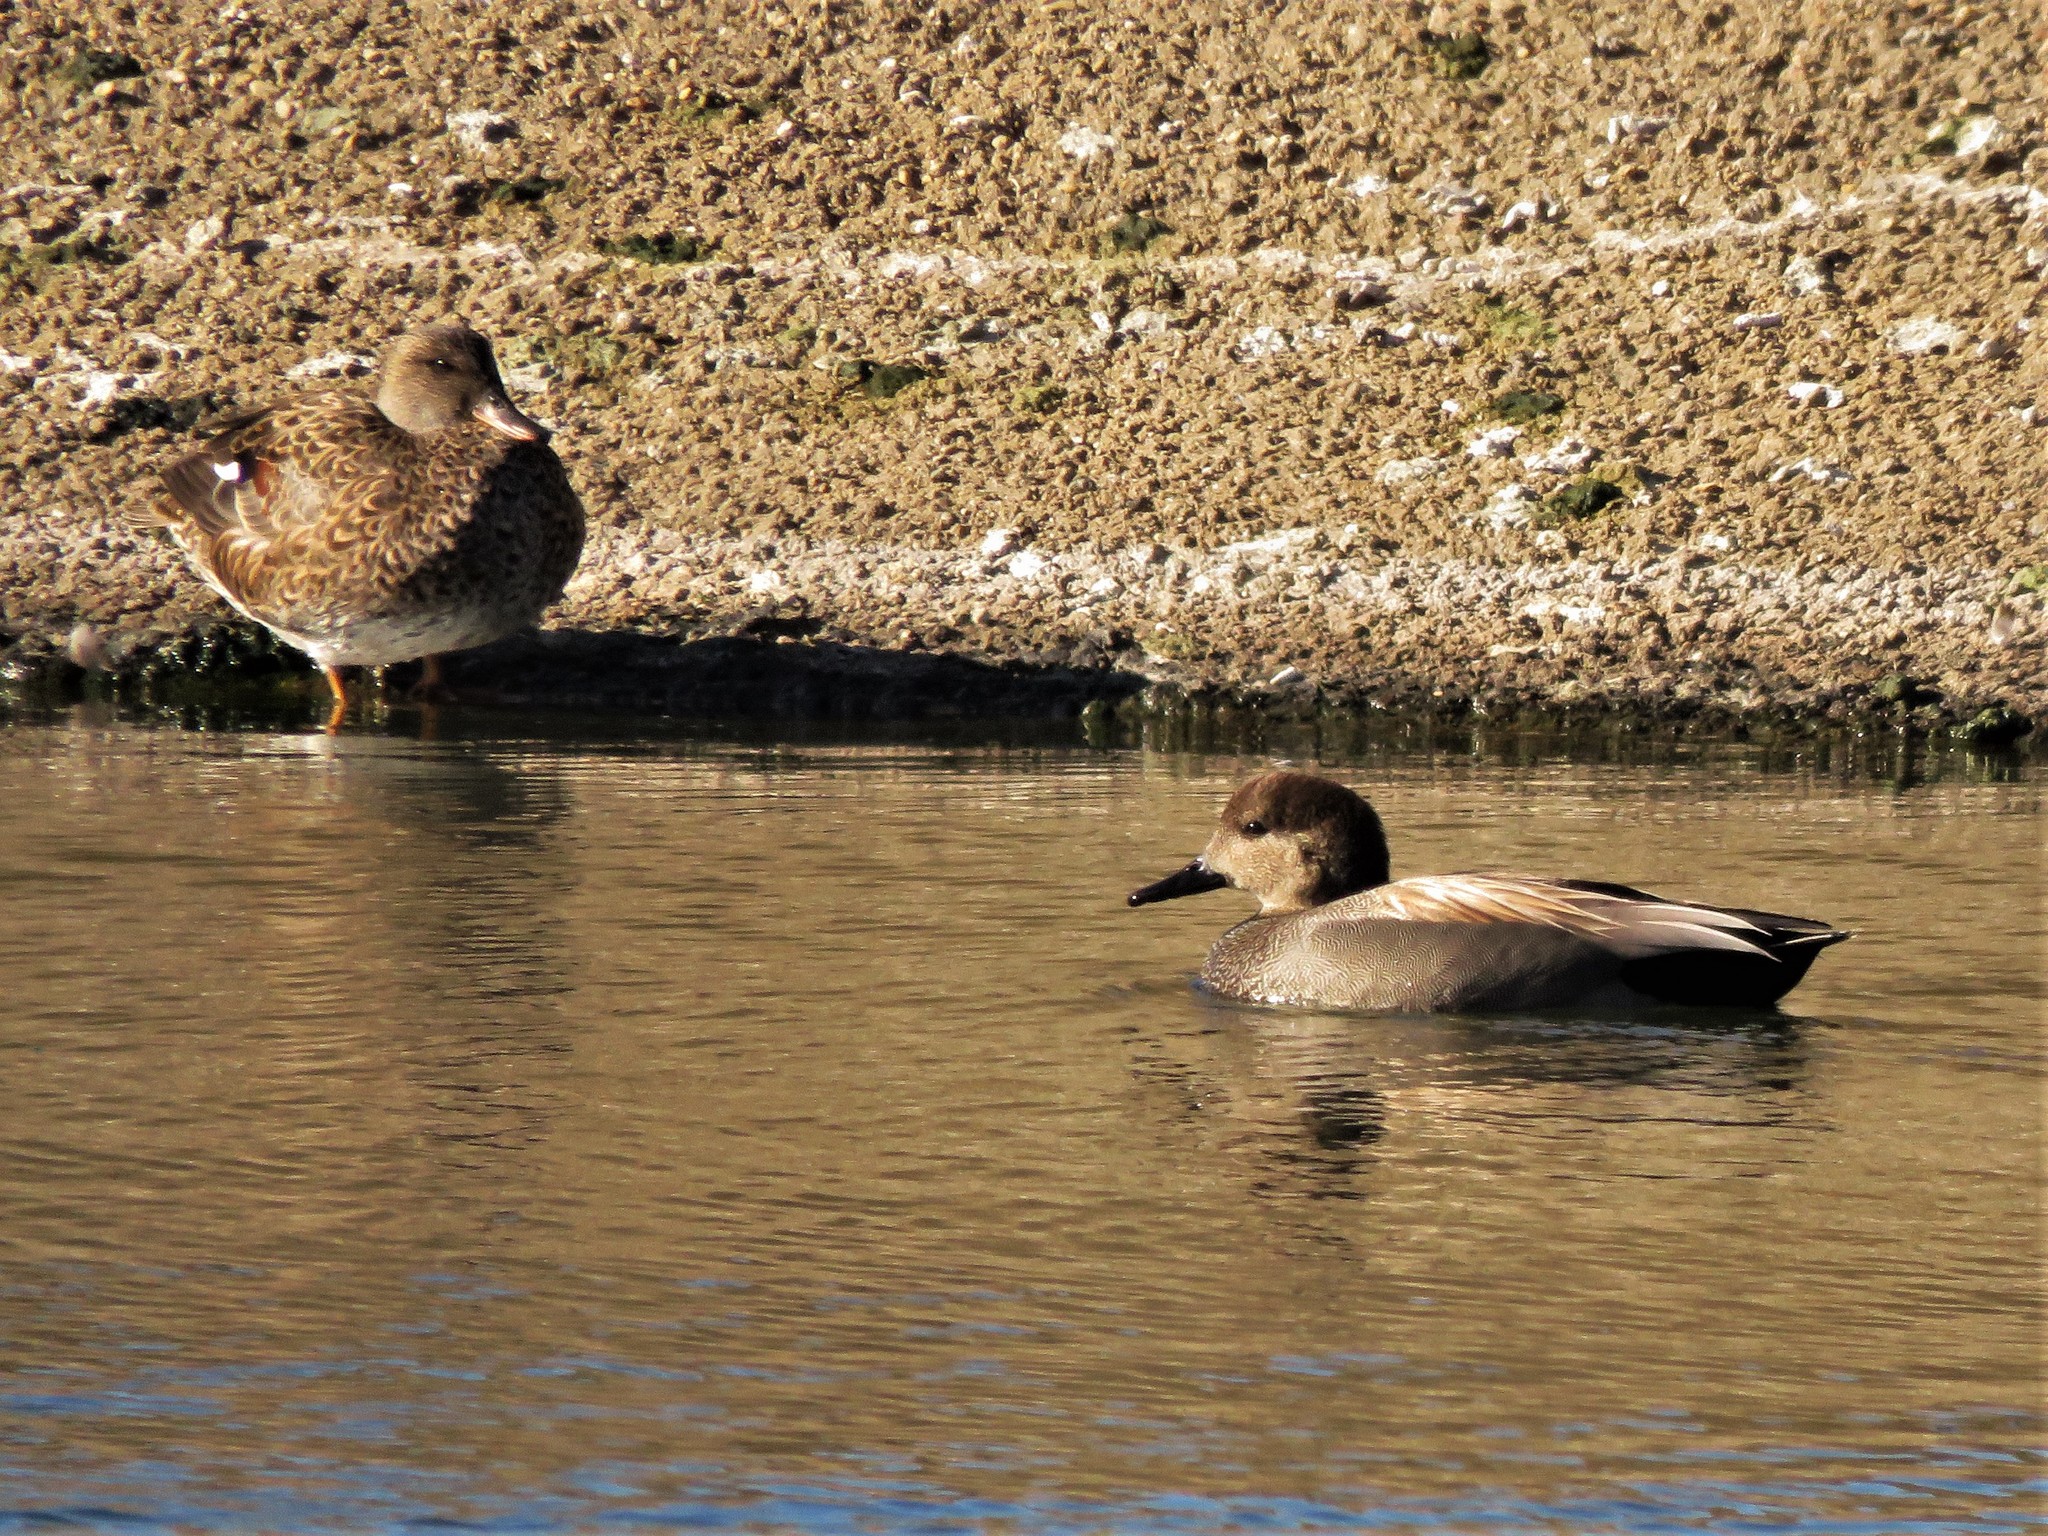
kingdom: Animalia
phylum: Chordata
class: Aves
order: Anseriformes
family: Anatidae
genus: Mareca
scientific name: Mareca strepera
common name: Gadwall
